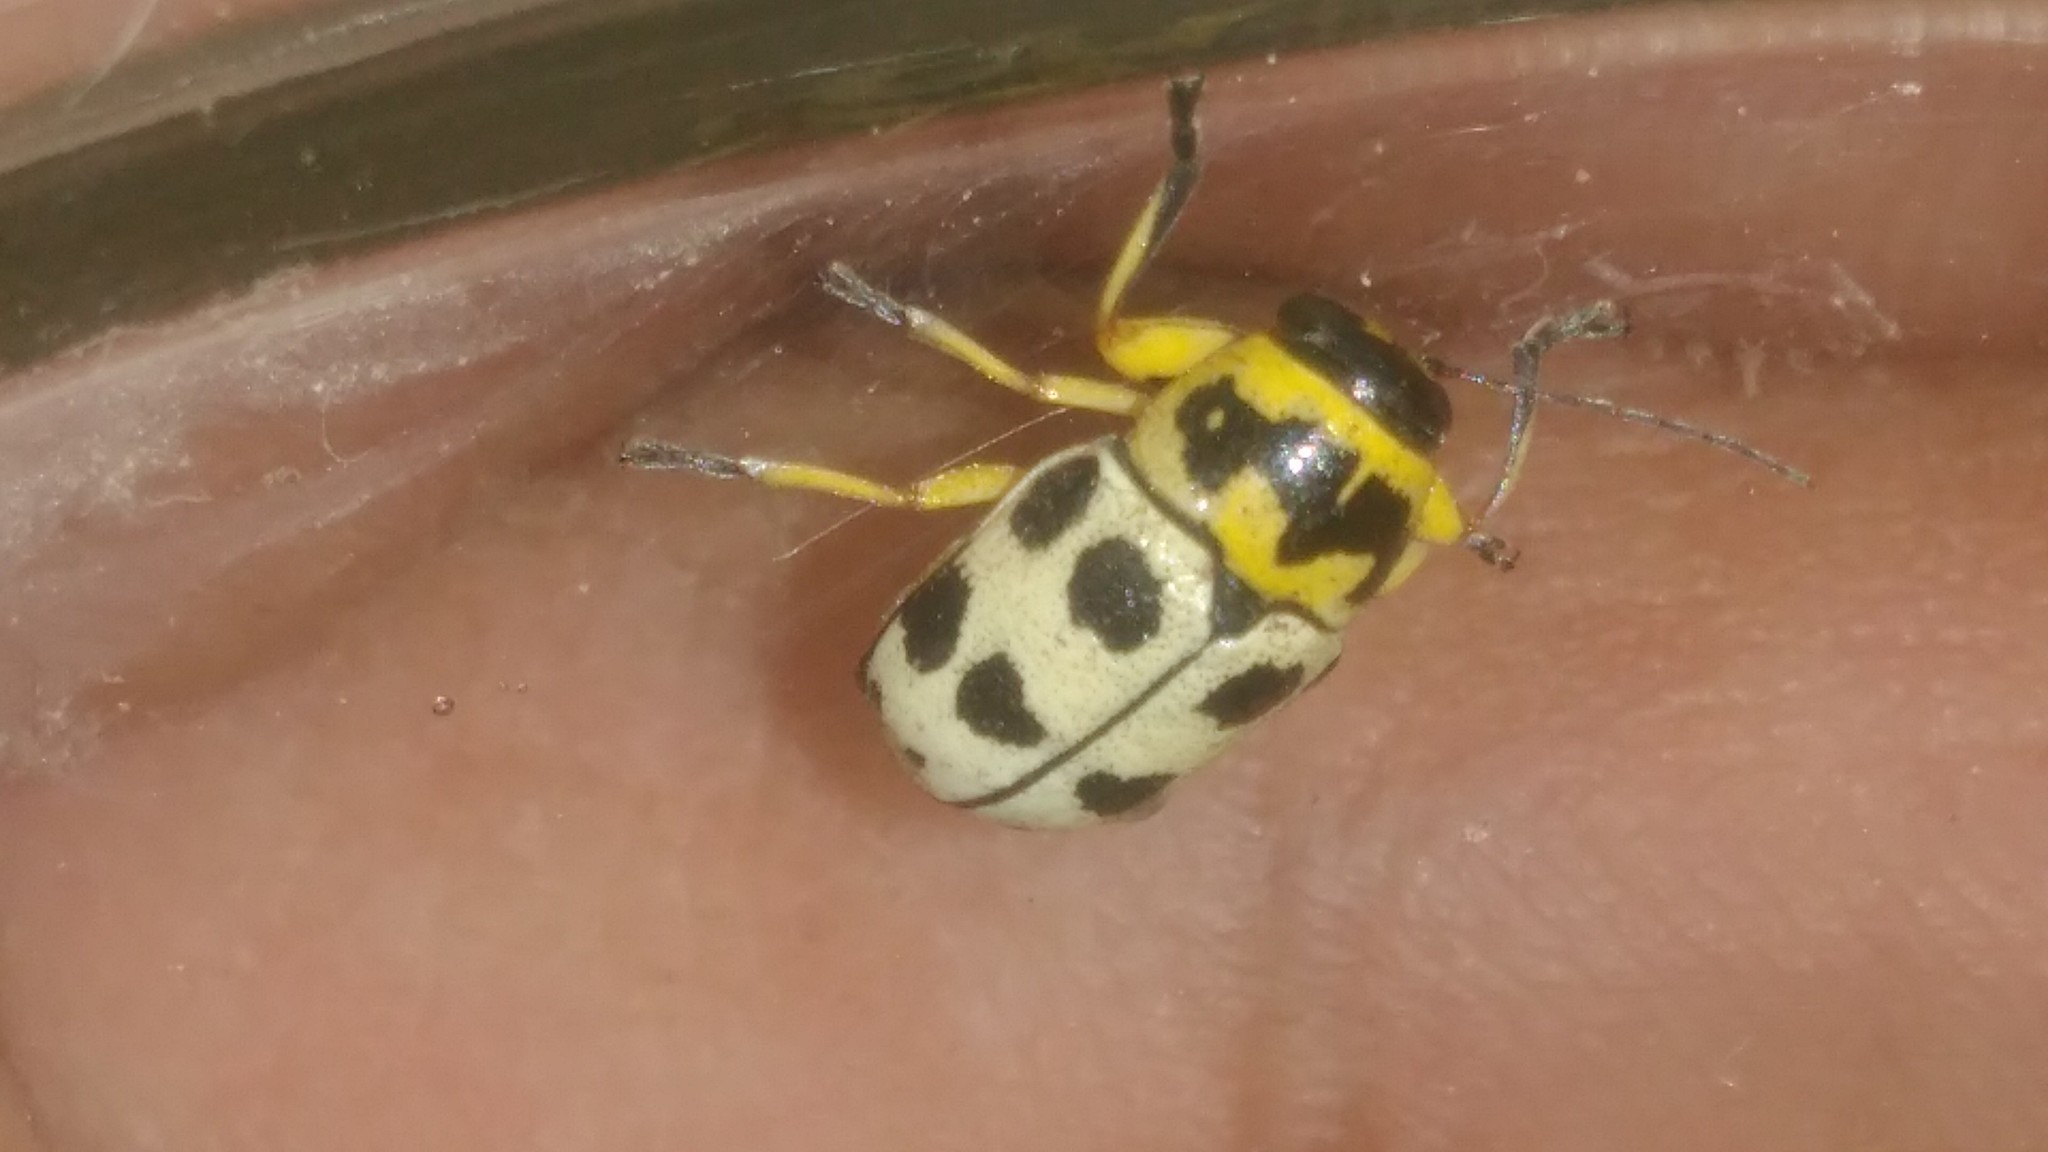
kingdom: Animalia
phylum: Arthropoda
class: Insecta
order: Coleoptera
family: Chrysomelidae
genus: Metallactus
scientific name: Metallactus pollens
